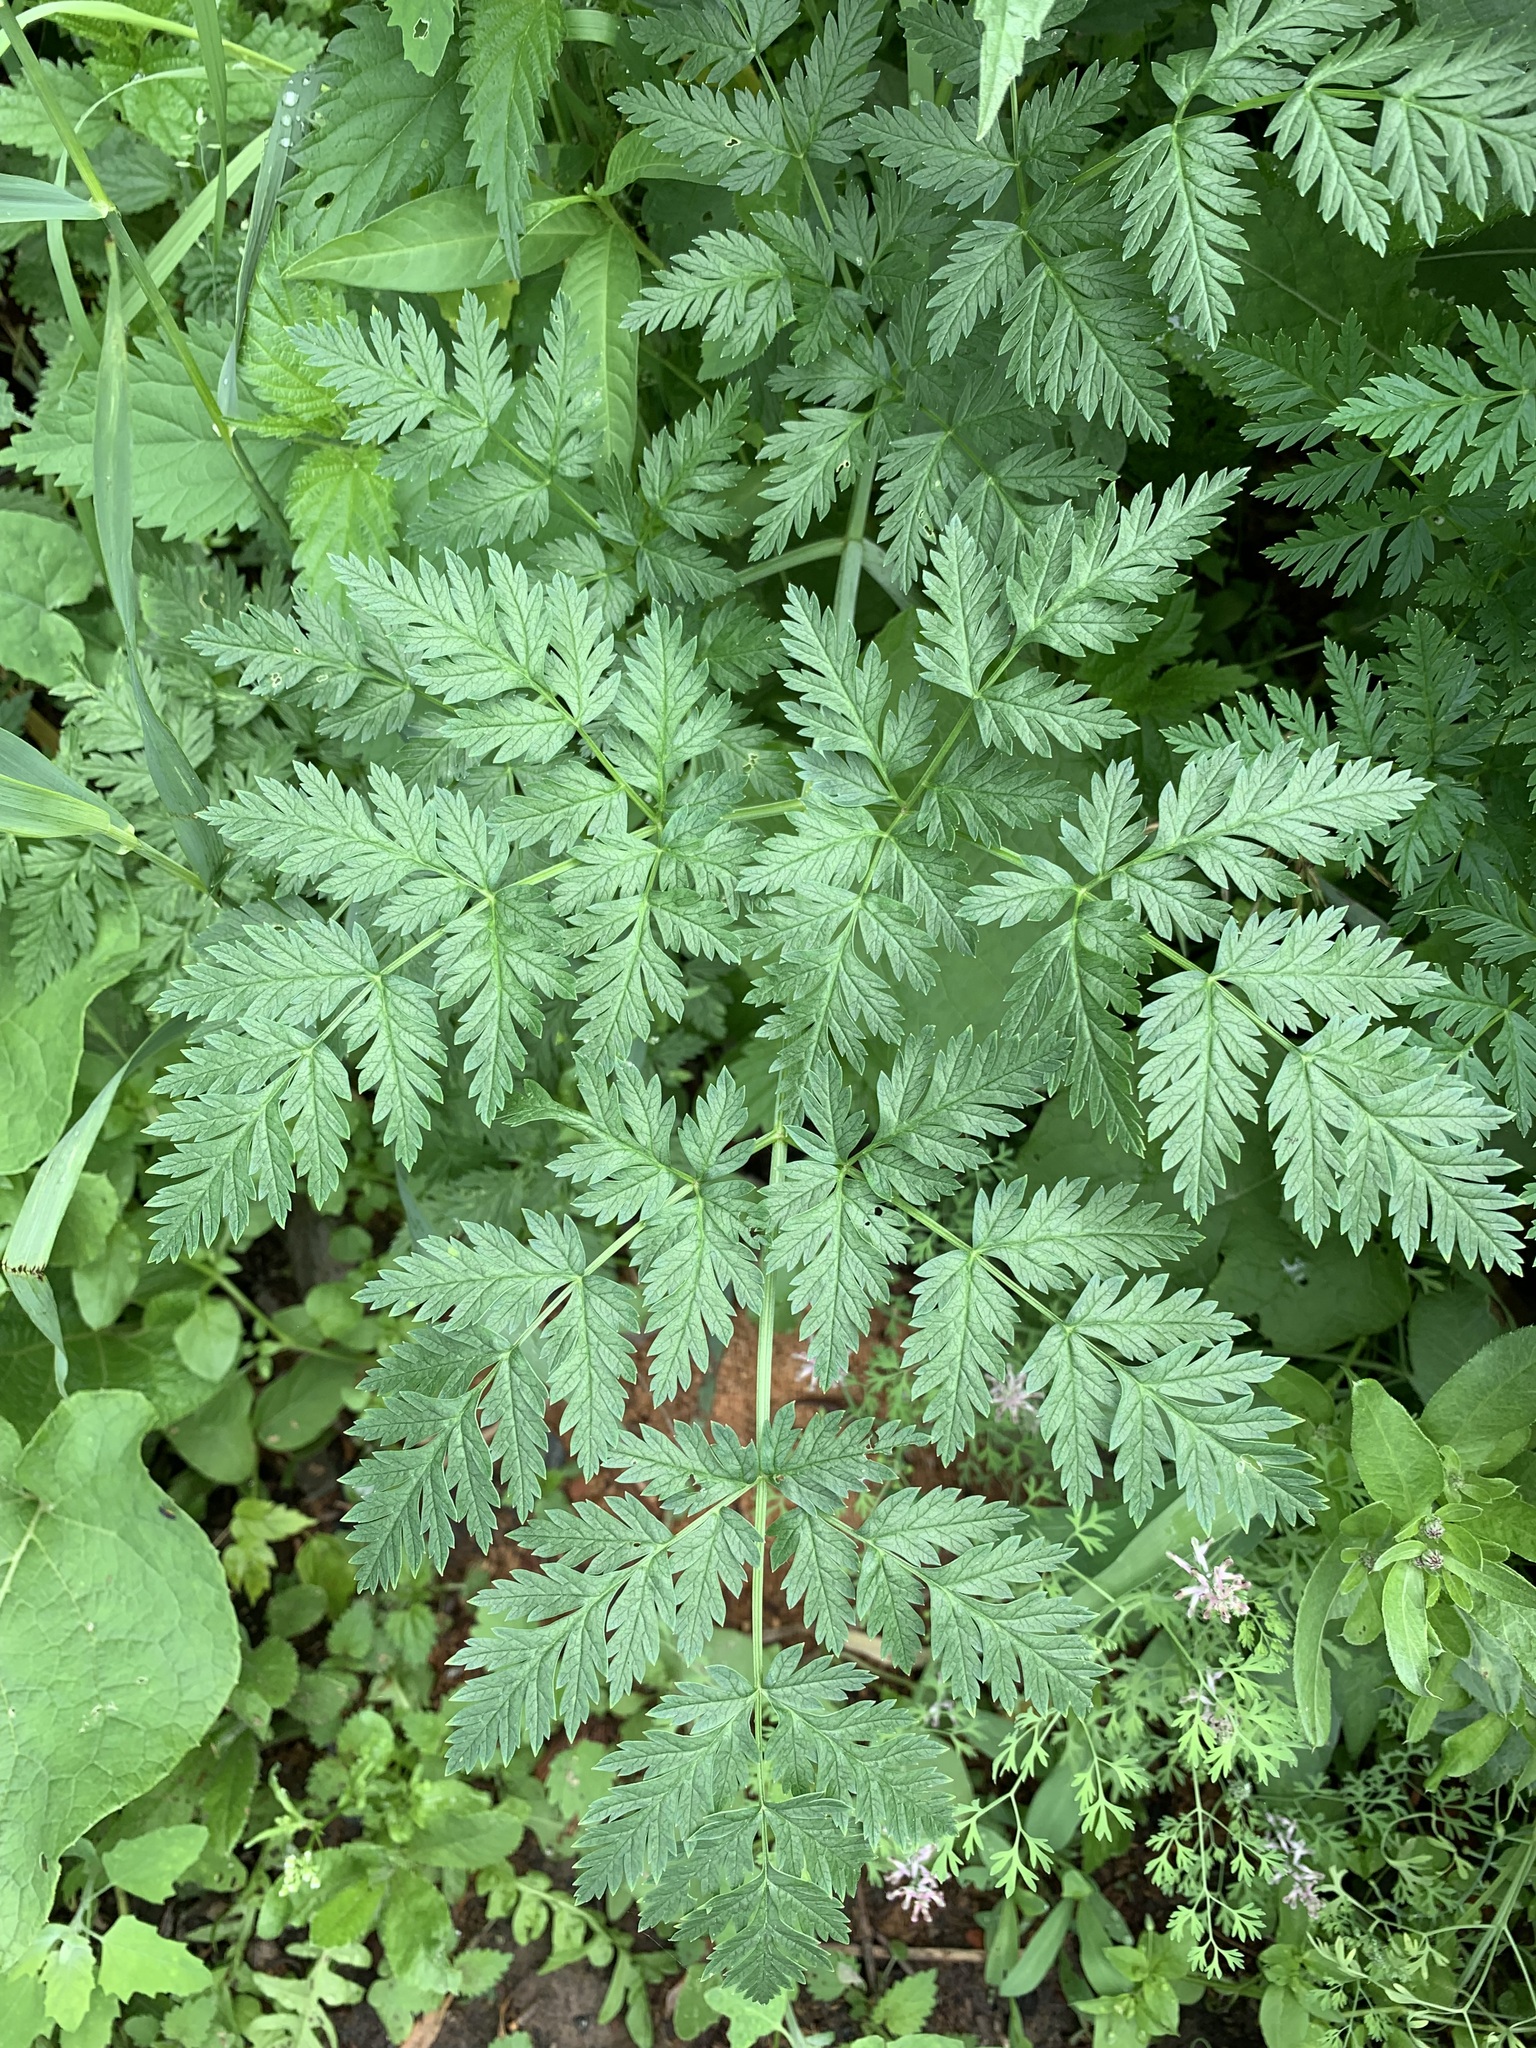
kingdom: Plantae
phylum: Tracheophyta
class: Magnoliopsida
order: Apiales
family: Apiaceae
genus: Conium
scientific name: Conium maculatum
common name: Hemlock
